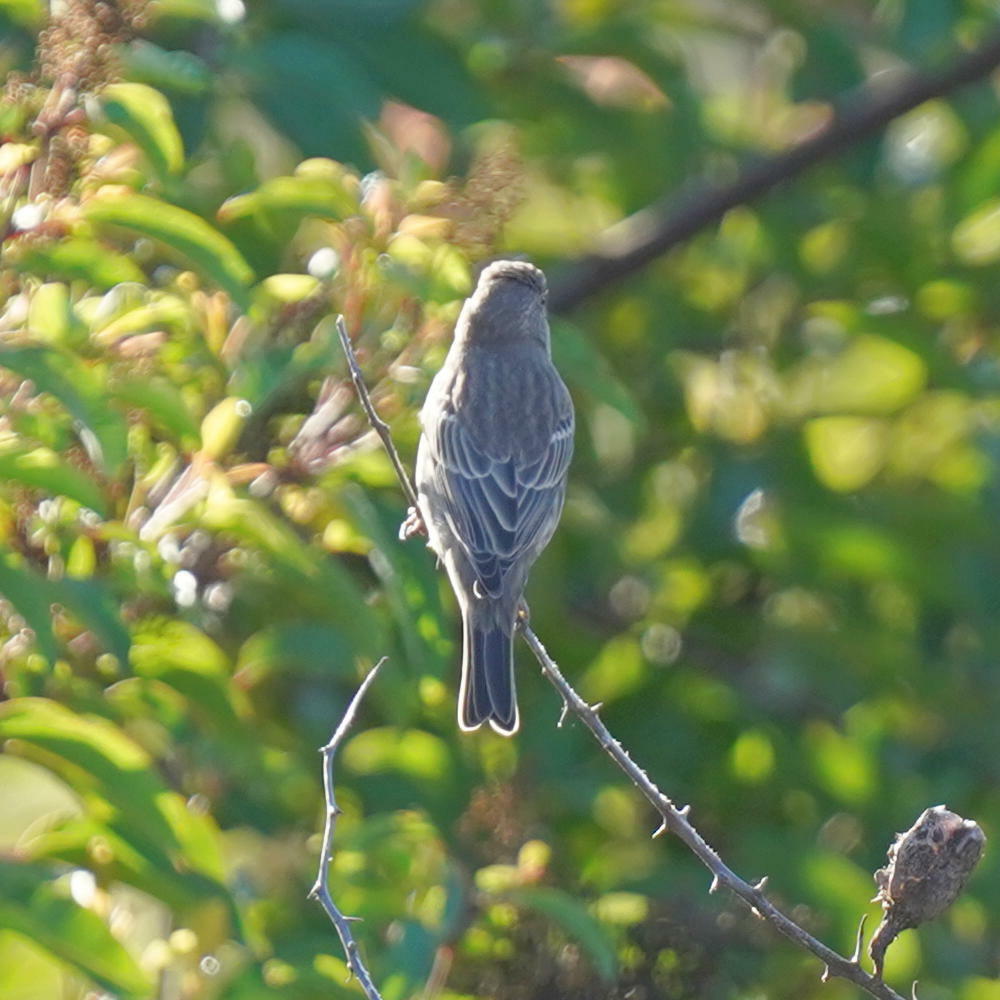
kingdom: Animalia
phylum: Chordata
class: Aves
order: Passeriformes
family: Fringillidae
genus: Haemorhous
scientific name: Haemorhous mexicanus
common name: House finch
